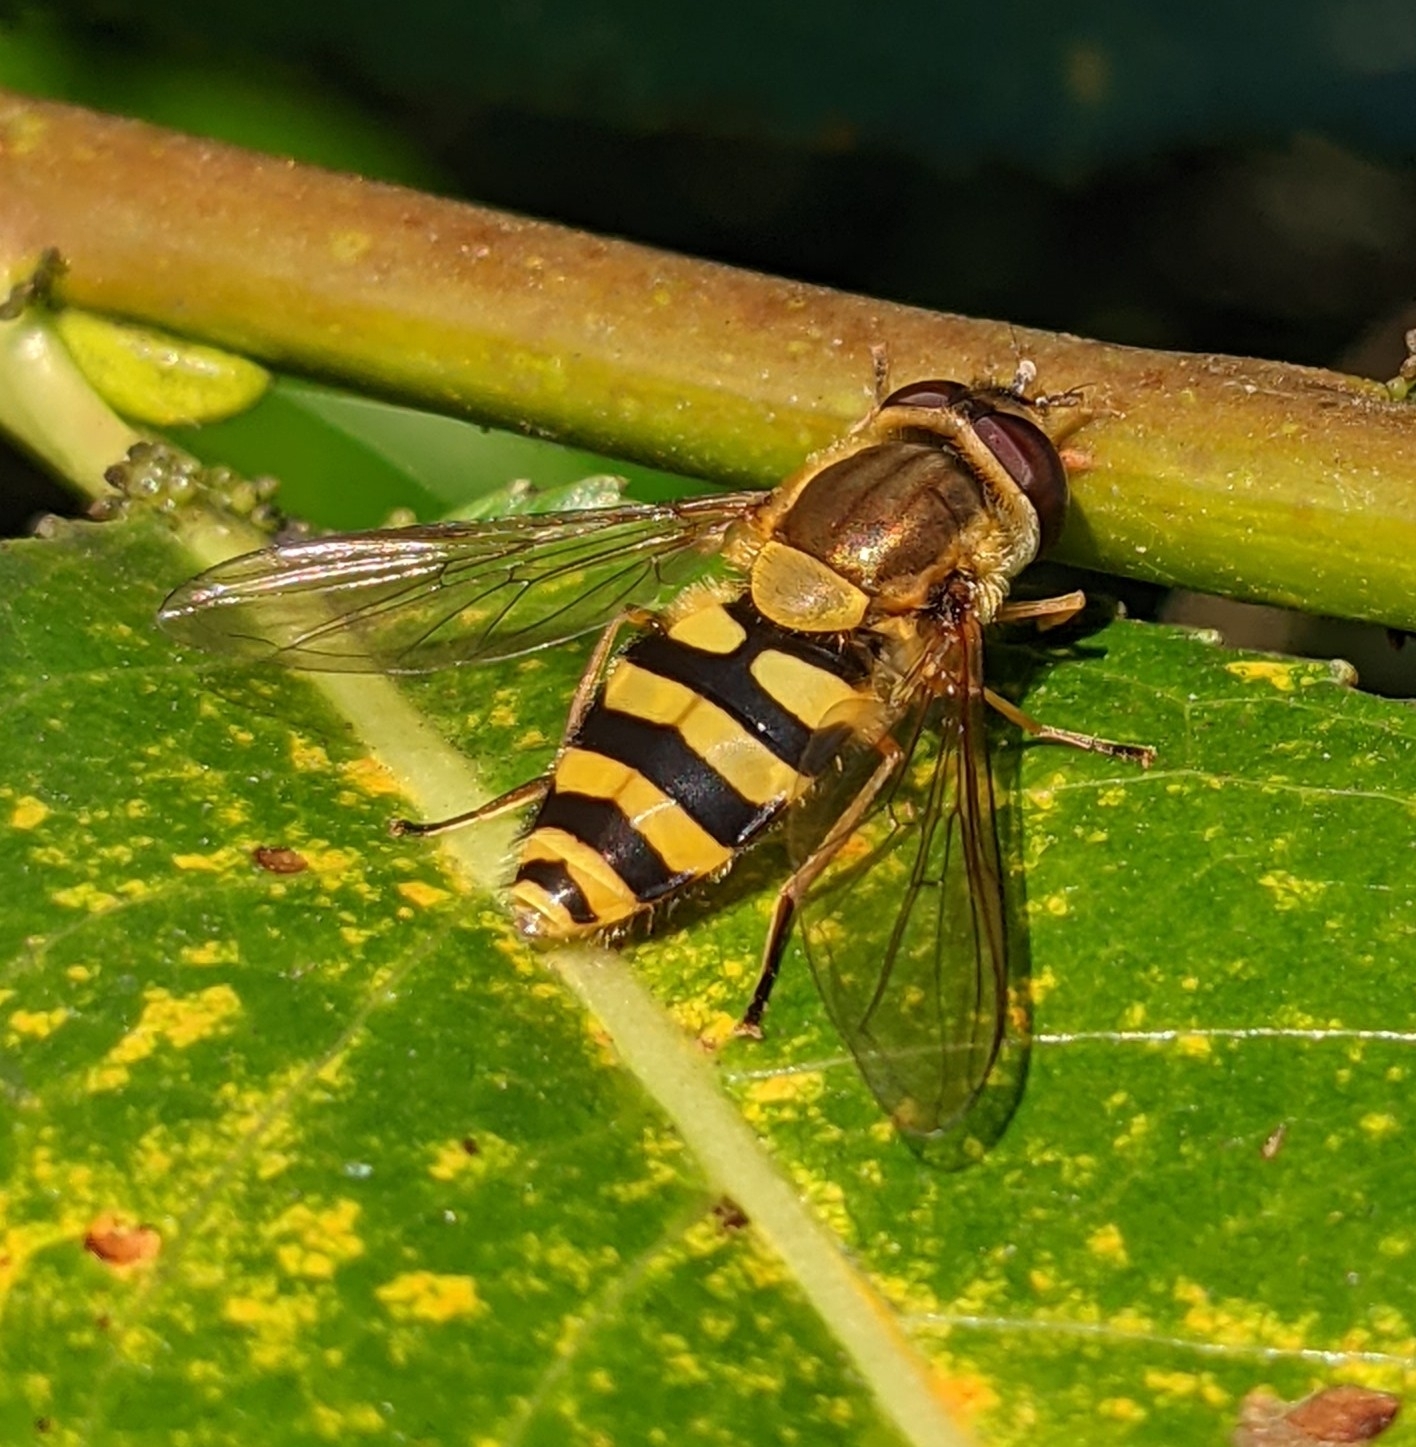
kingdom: Animalia
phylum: Arthropoda
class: Insecta
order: Diptera
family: Syrphidae
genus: Syrphus
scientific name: Syrphus
